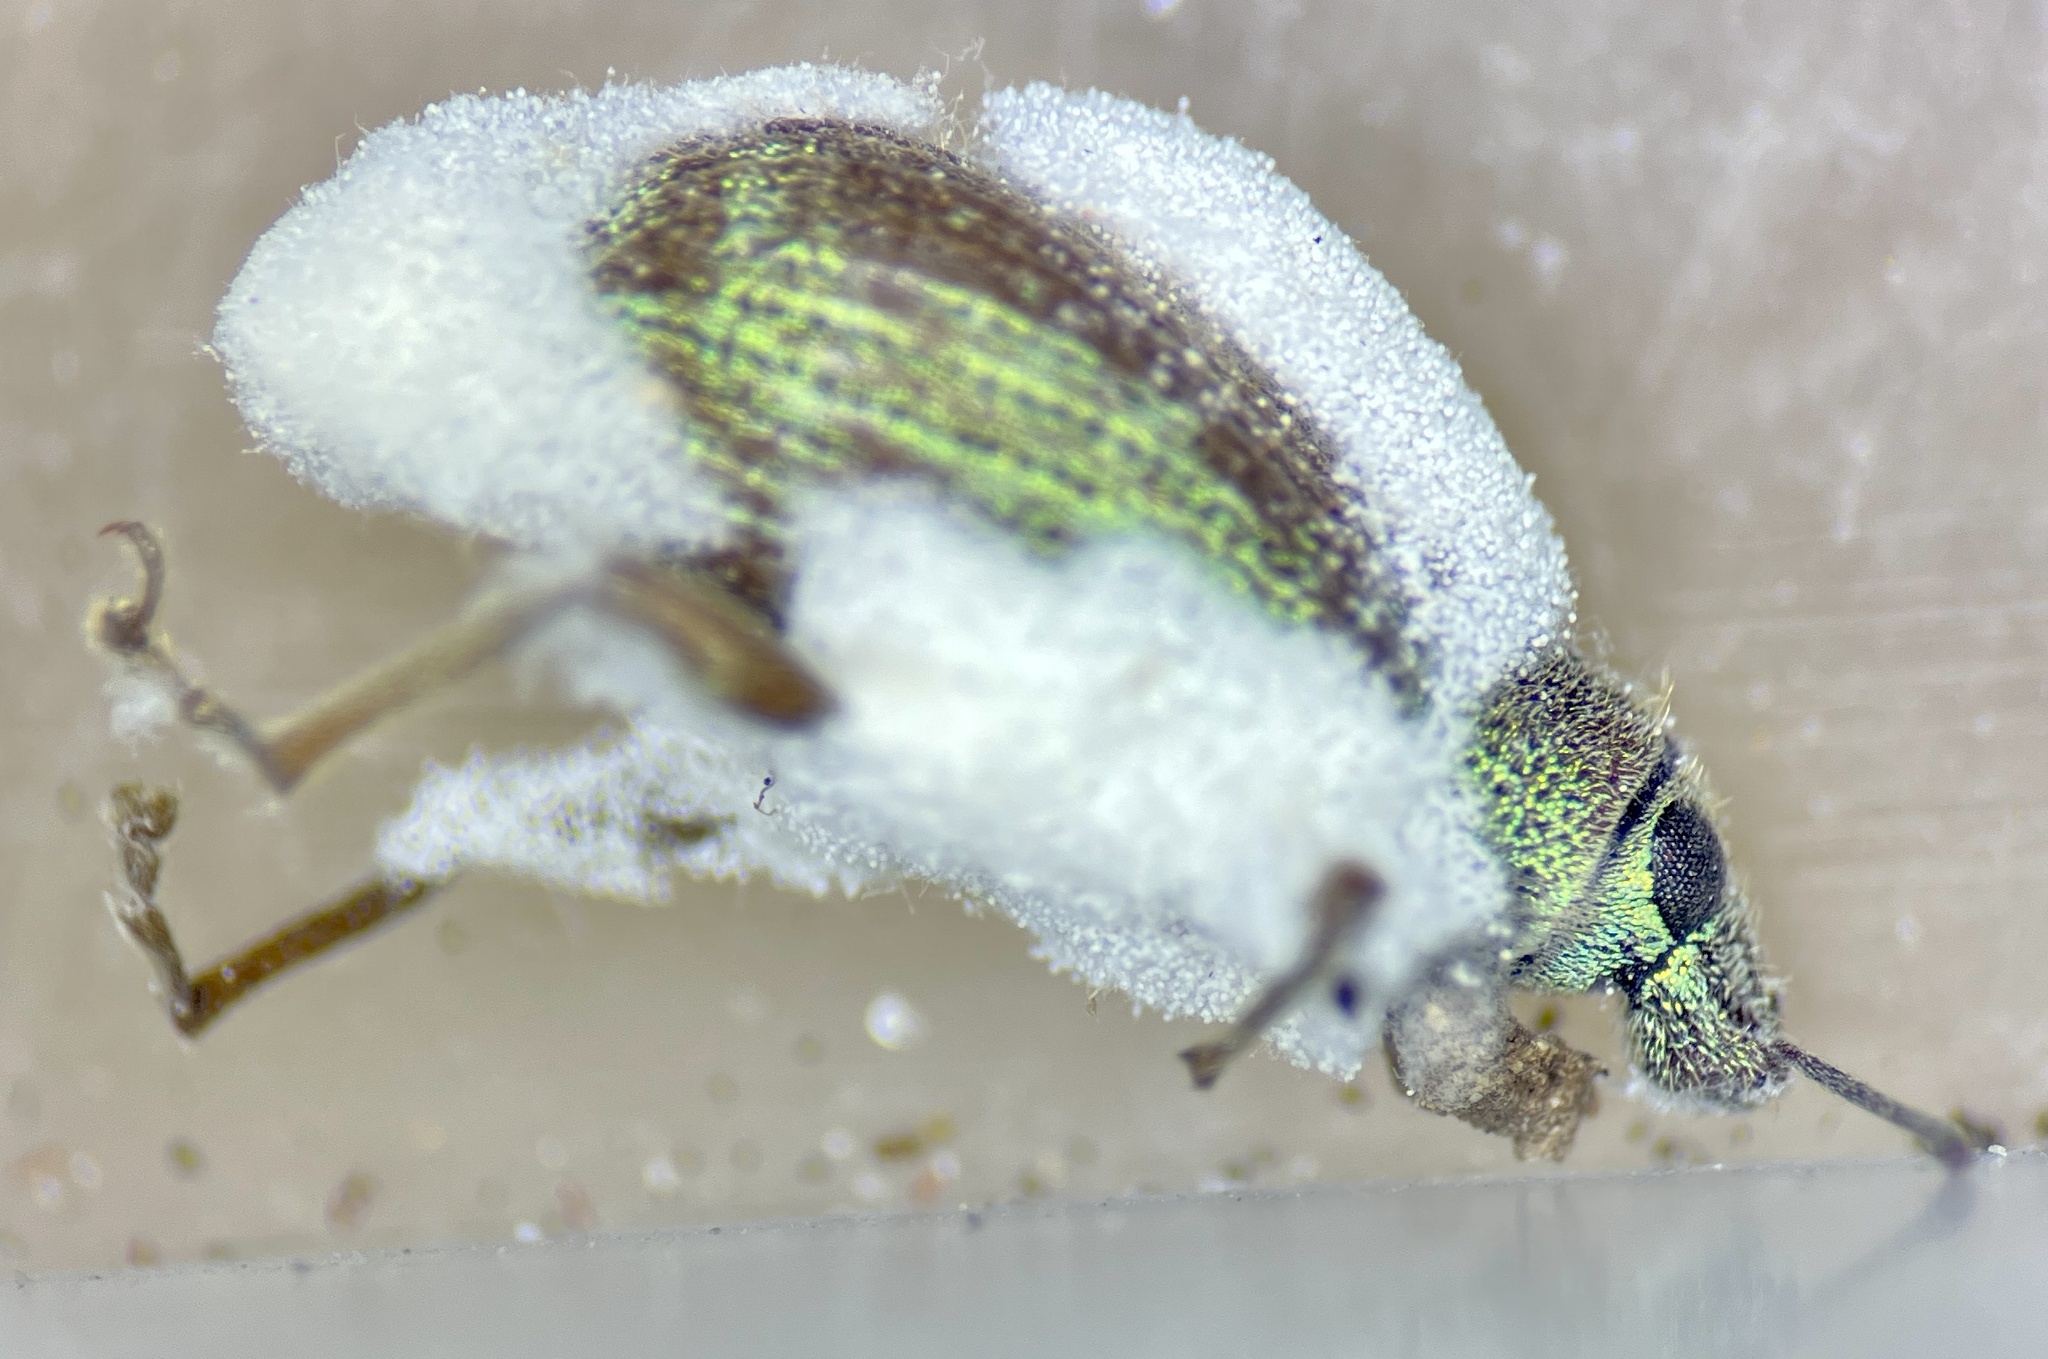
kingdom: Animalia
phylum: Arthropoda
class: Insecta
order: Coleoptera
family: Curculionidae
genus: Cyrtepistomus
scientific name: Cyrtepistomus castaneus
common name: Weevil
